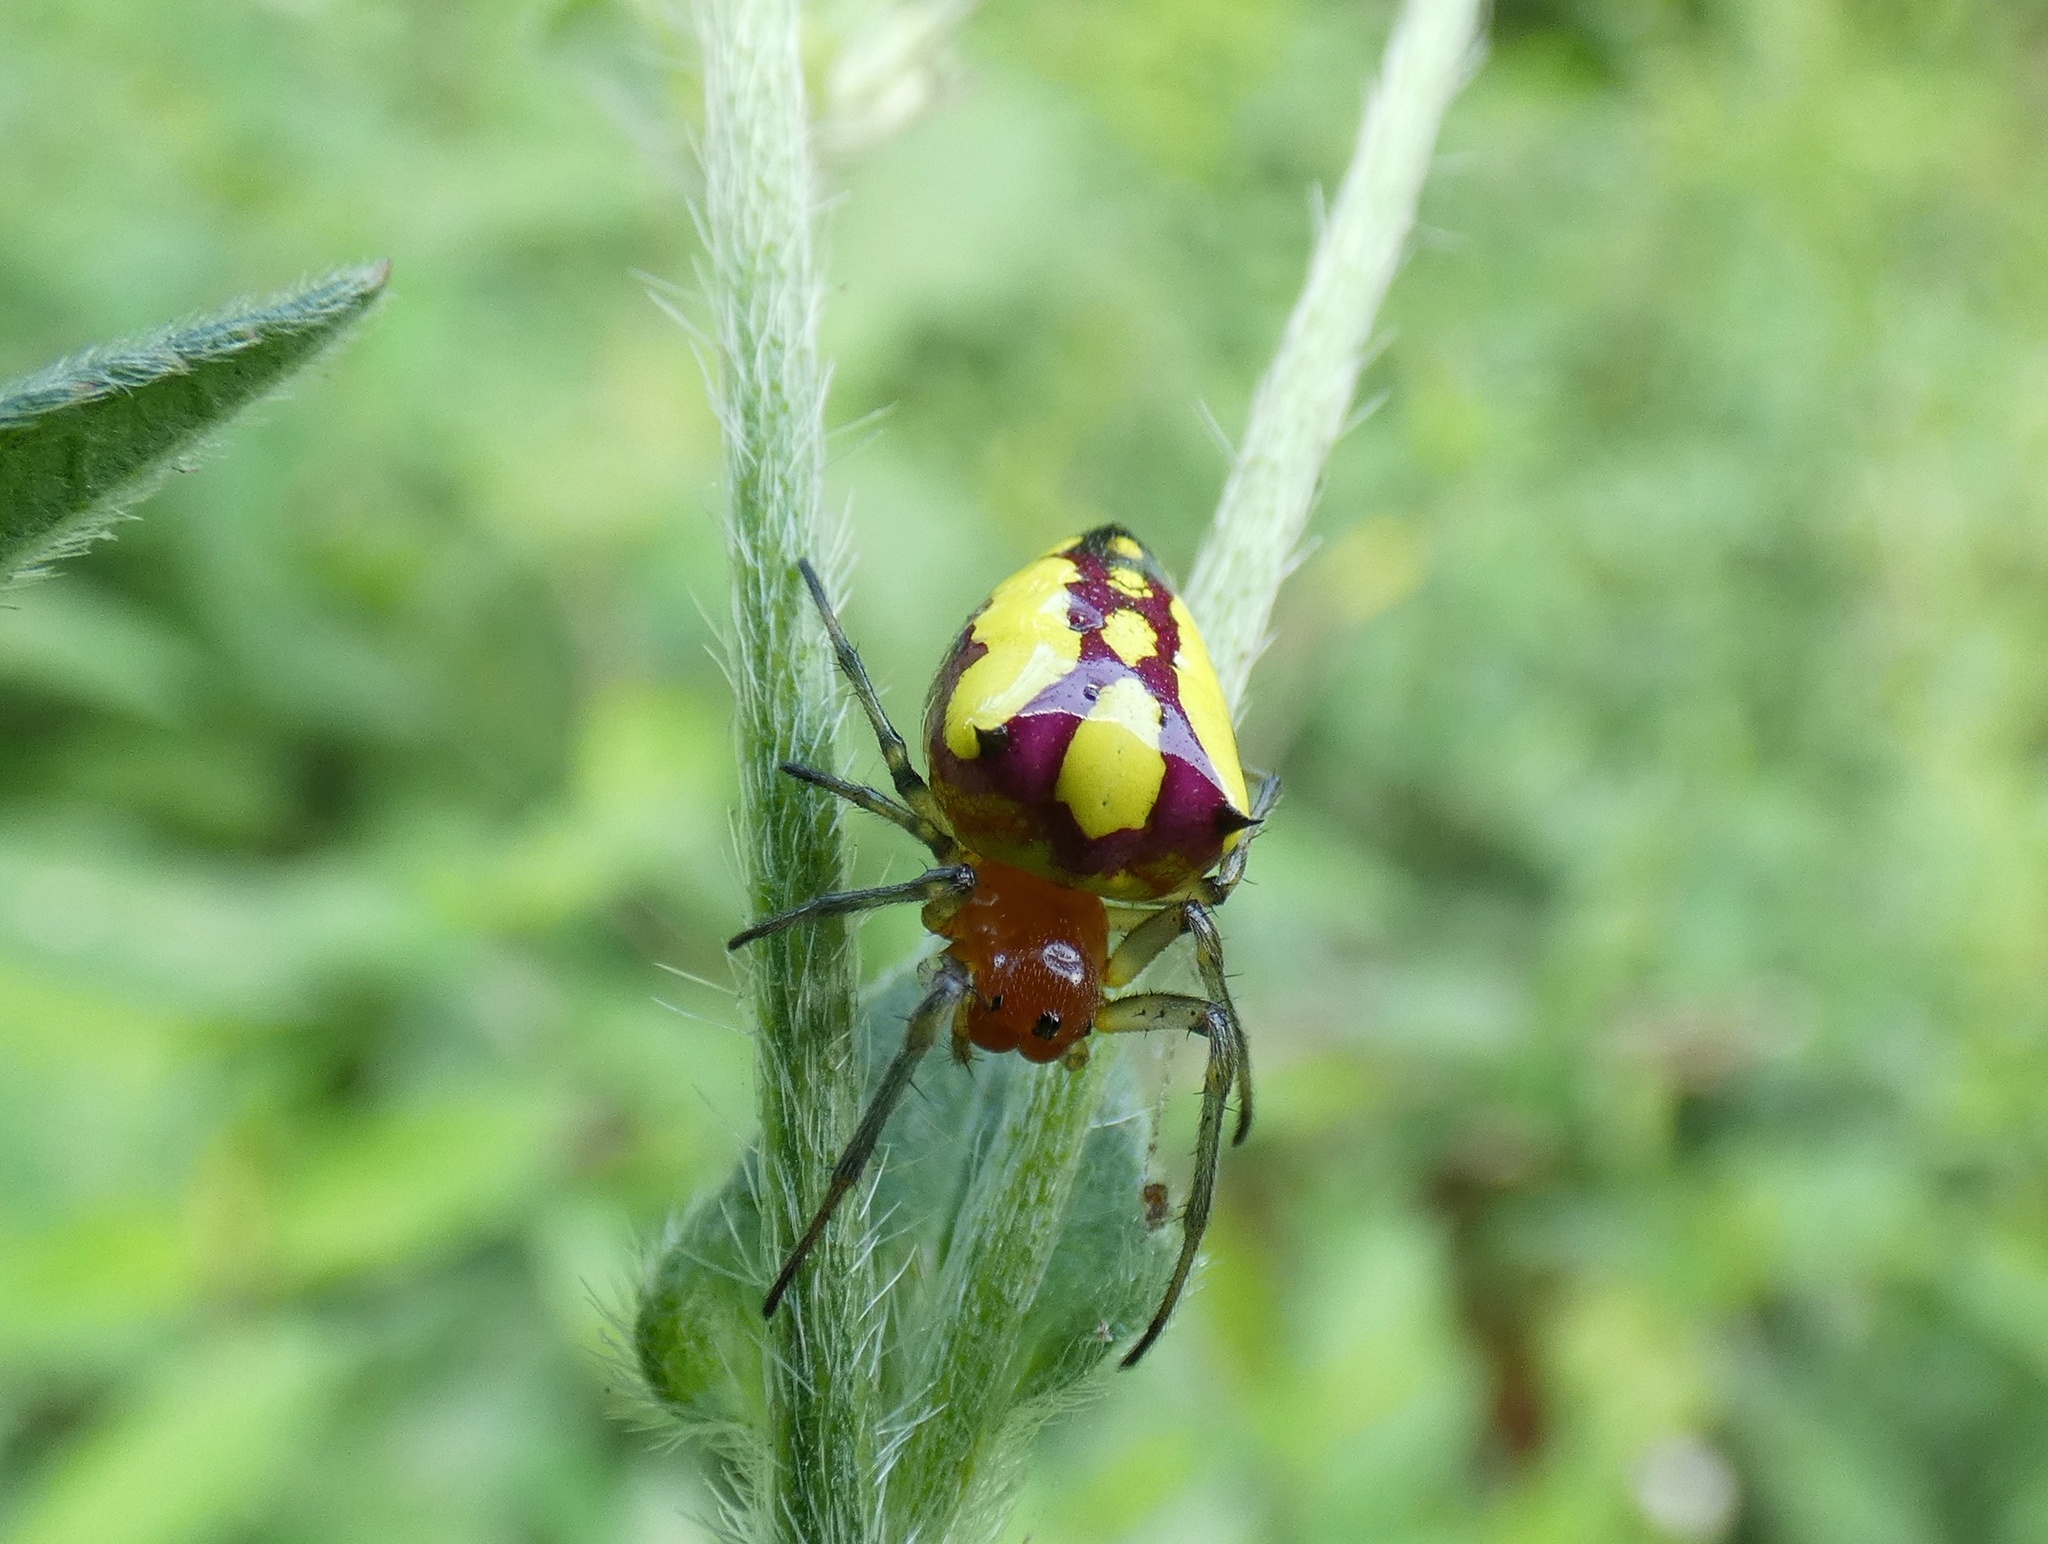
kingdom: Animalia
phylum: Arthropoda
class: Arachnida
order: Araneae
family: Araneidae
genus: Alpaida
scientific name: Alpaida bicornuta
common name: Orb weavers
